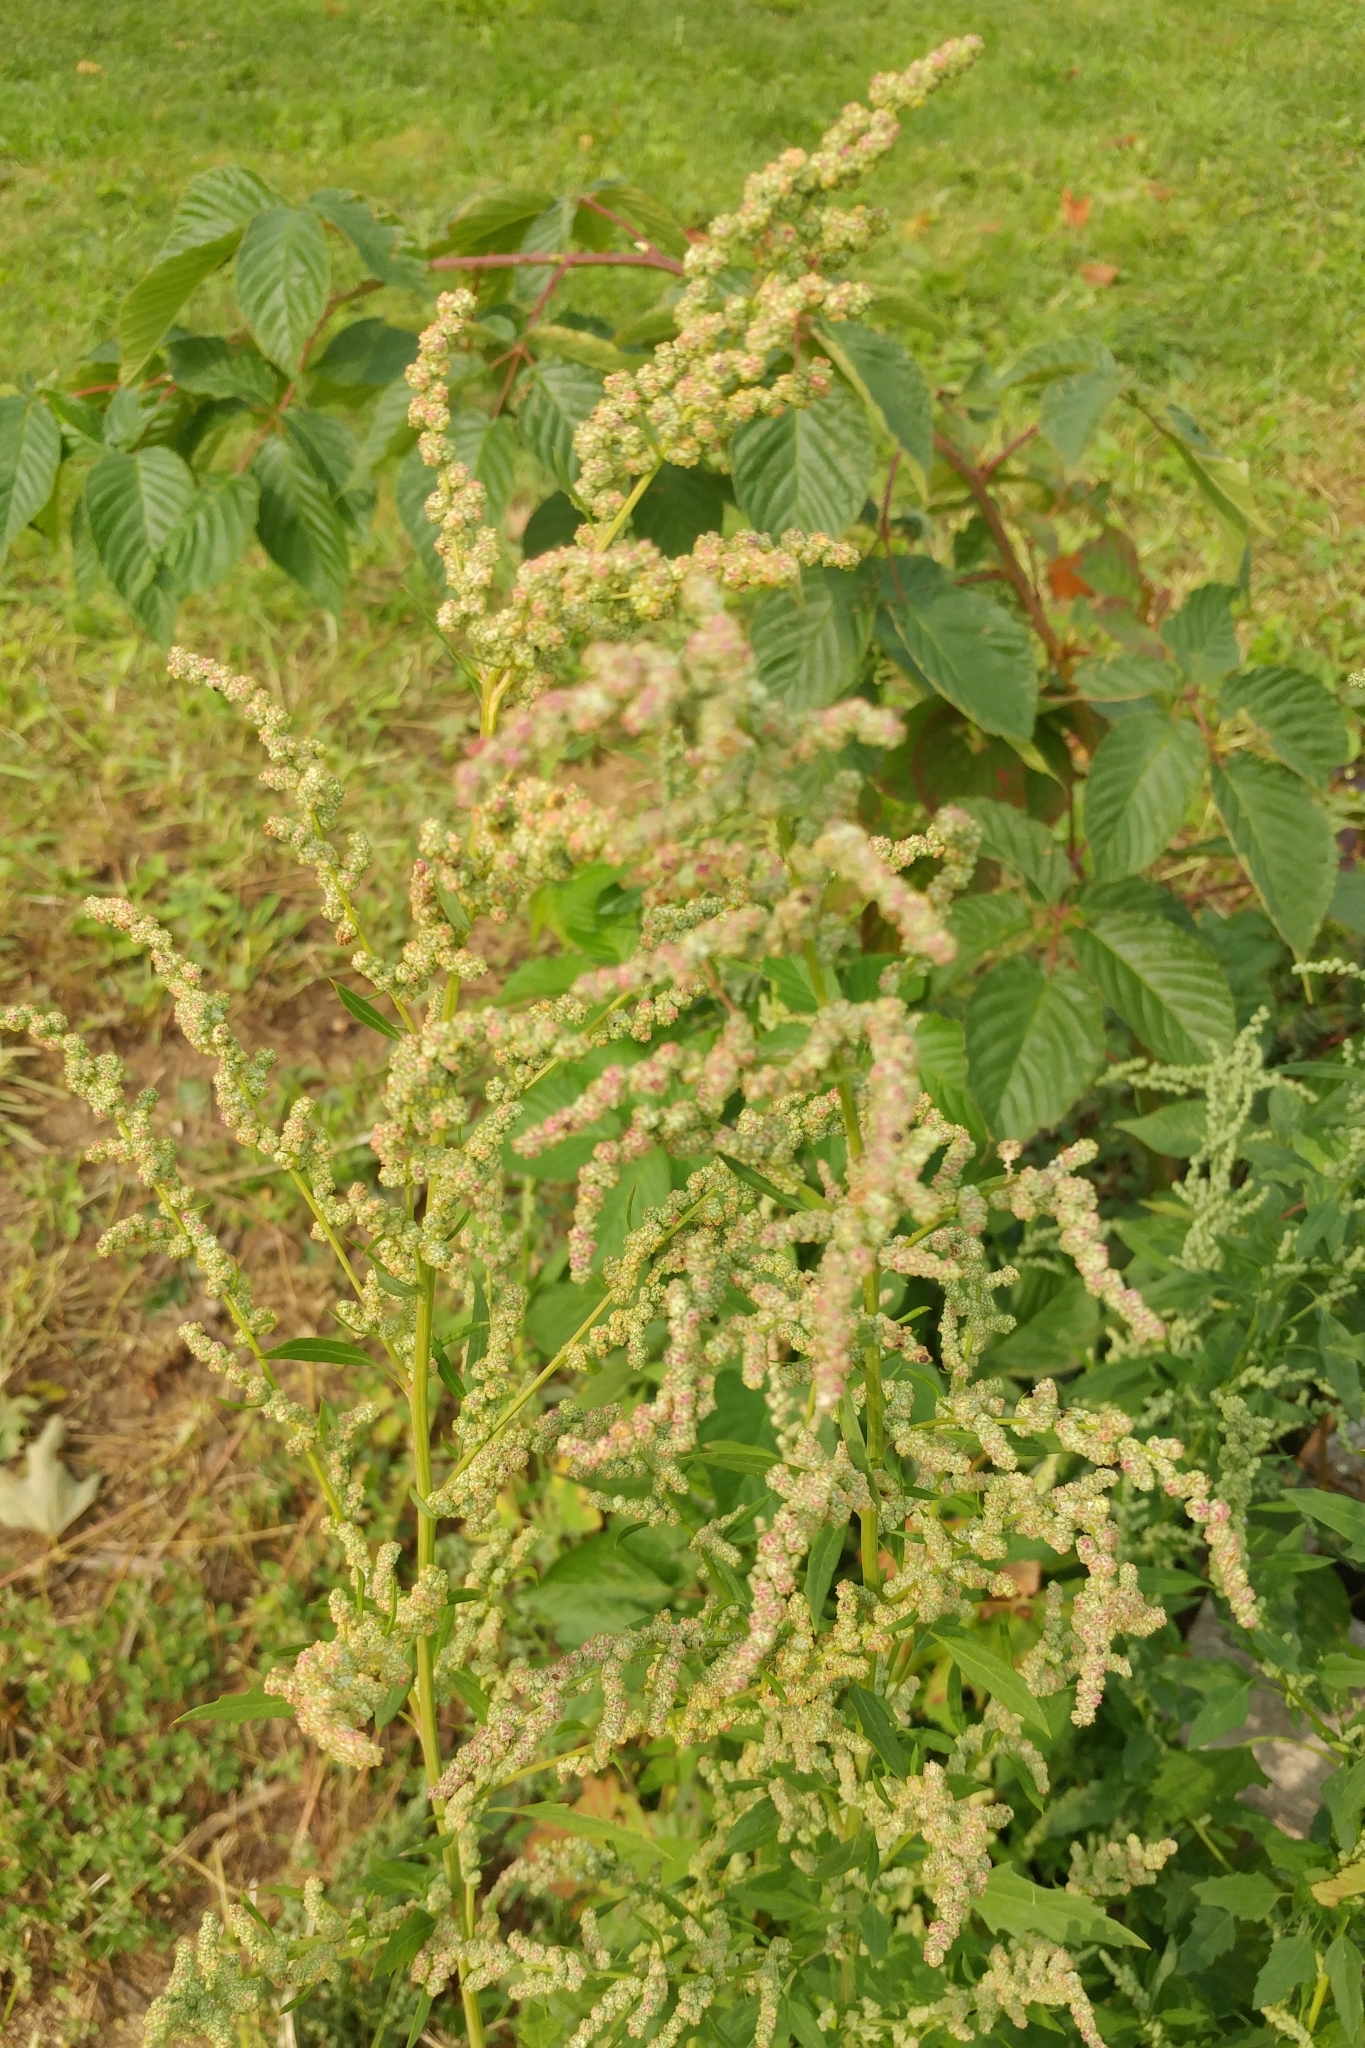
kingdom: Plantae
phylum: Tracheophyta
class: Magnoliopsida
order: Caryophyllales
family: Amaranthaceae
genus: Chenopodium
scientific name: Chenopodium album
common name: Fat-hen
